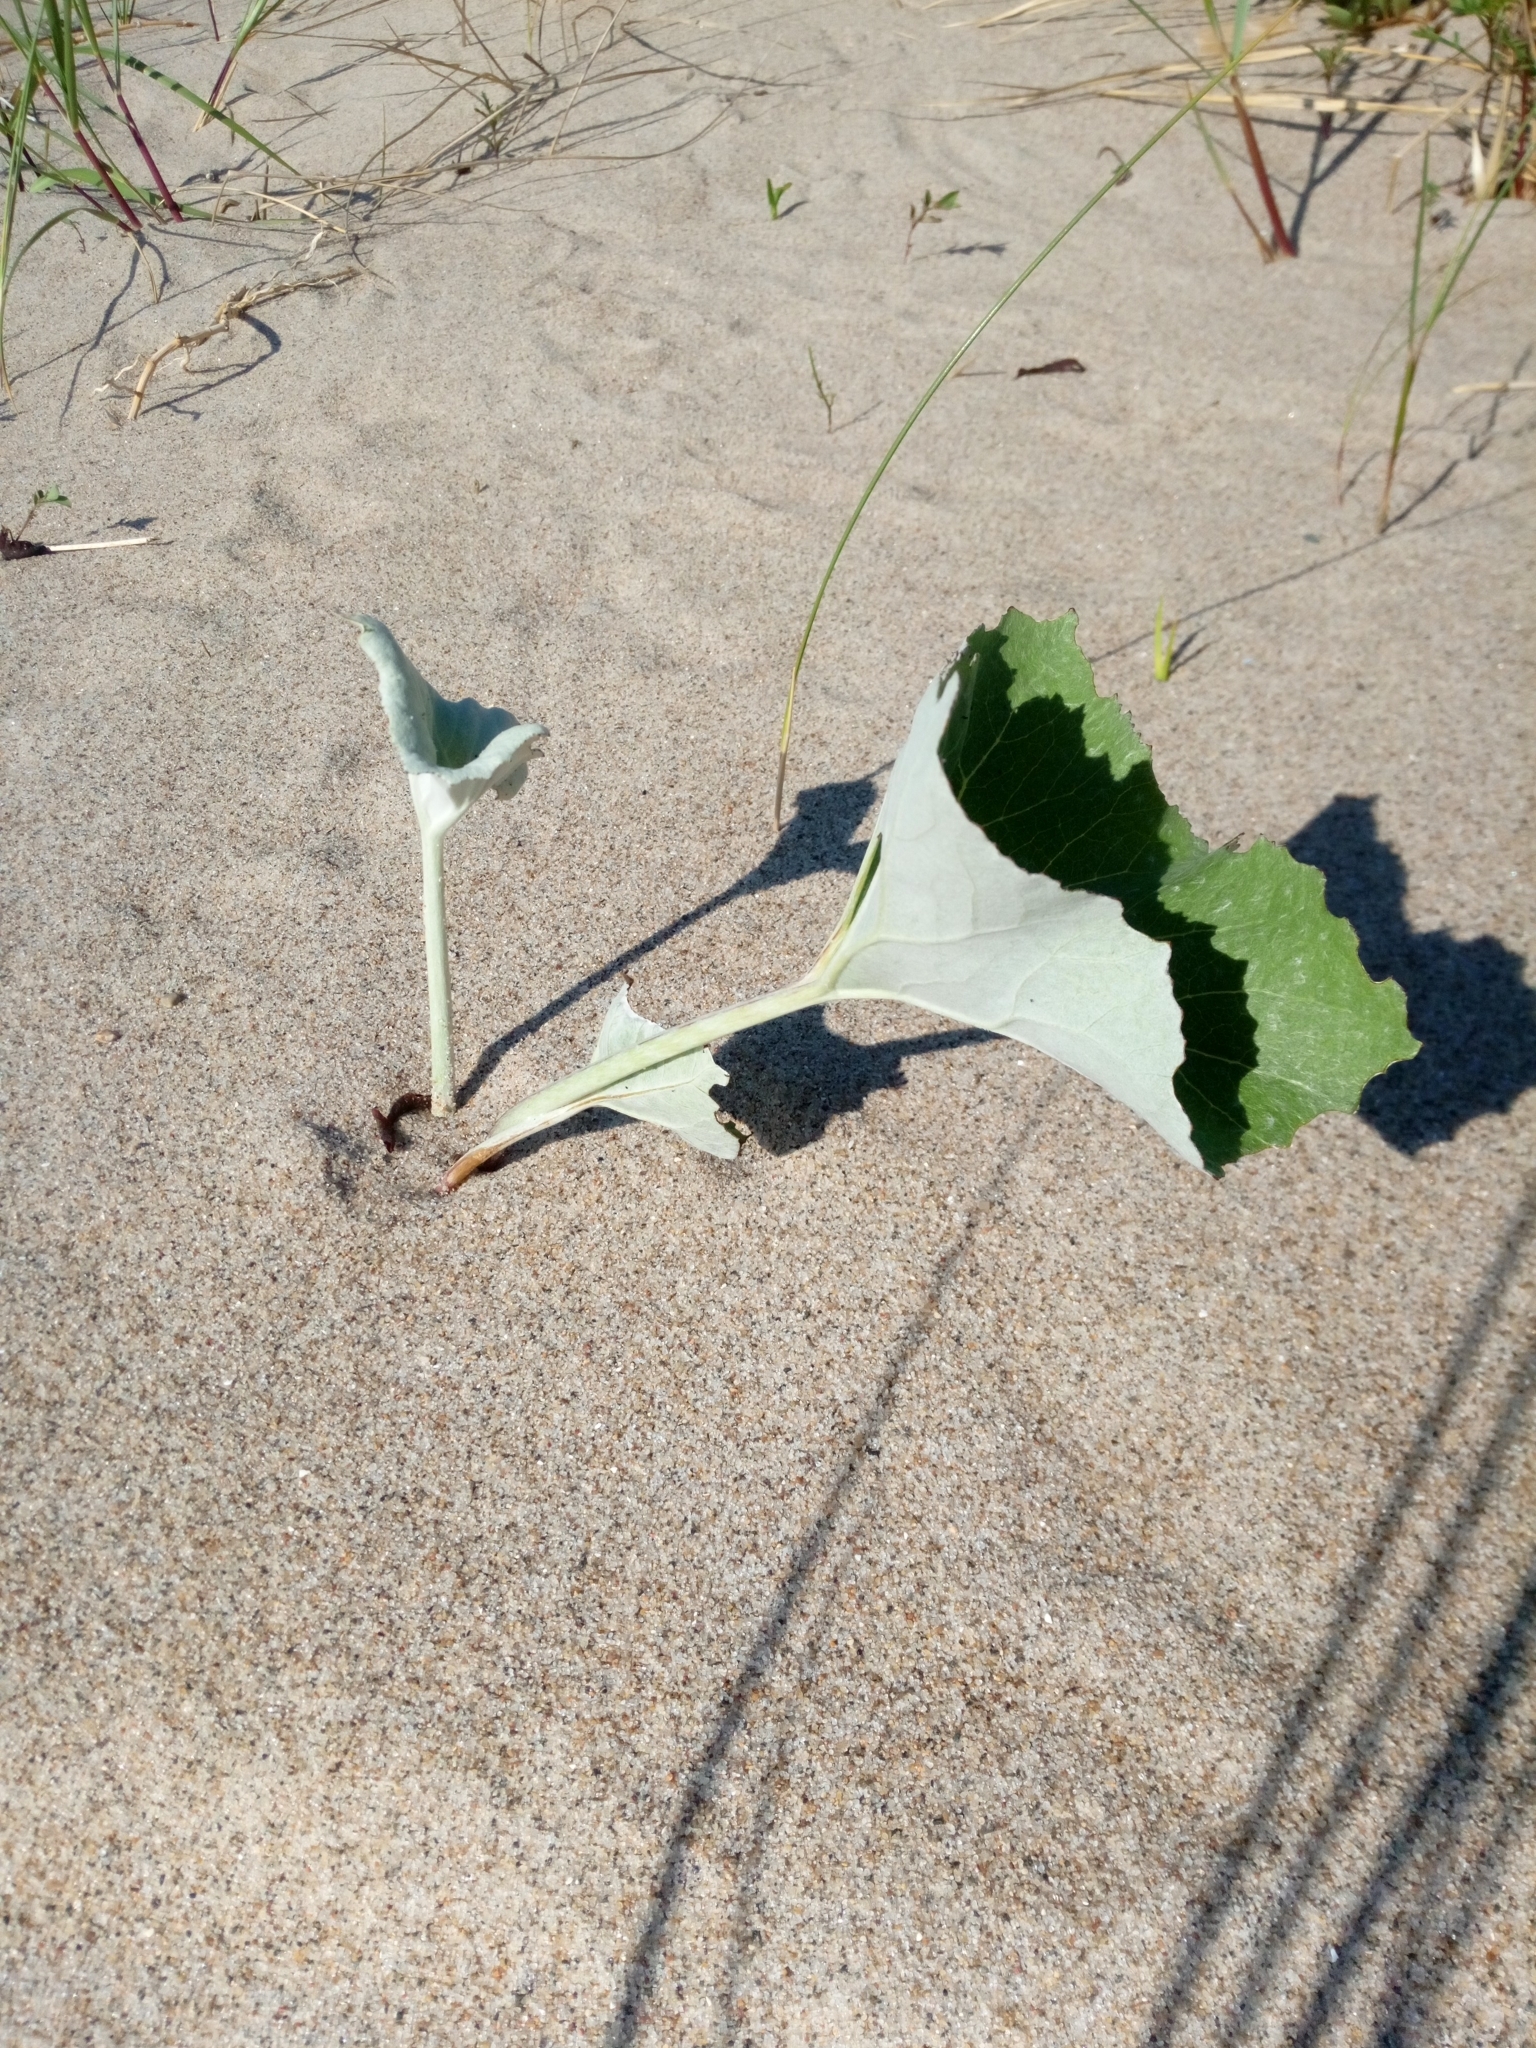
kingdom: Plantae
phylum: Tracheophyta
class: Magnoliopsida
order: Asterales
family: Asteraceae
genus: Petasites
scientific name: Petasites spurius
